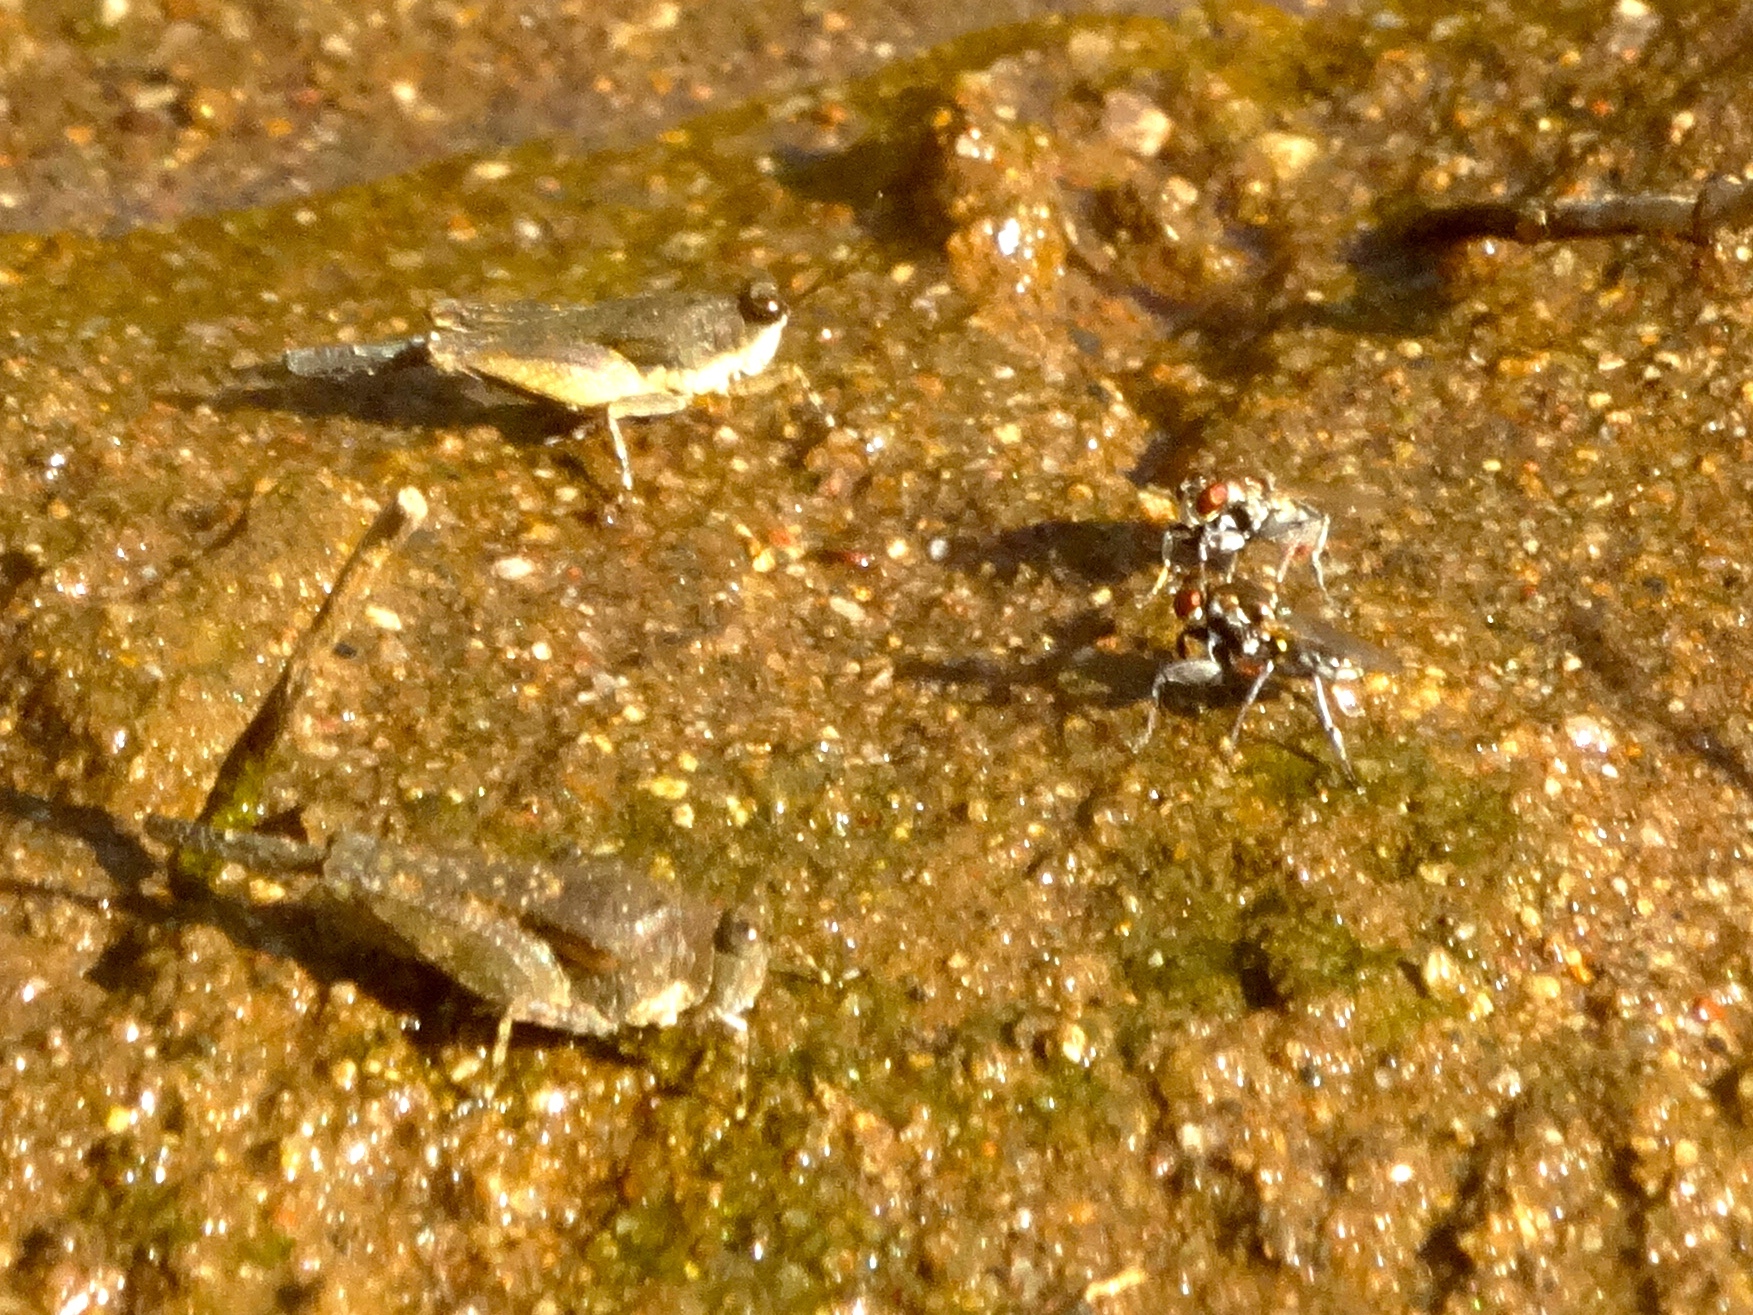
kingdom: Animalia
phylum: Arthropoda
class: Insecta
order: Diptera
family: Ephydridae
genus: Ochthera
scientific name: Ochthera
